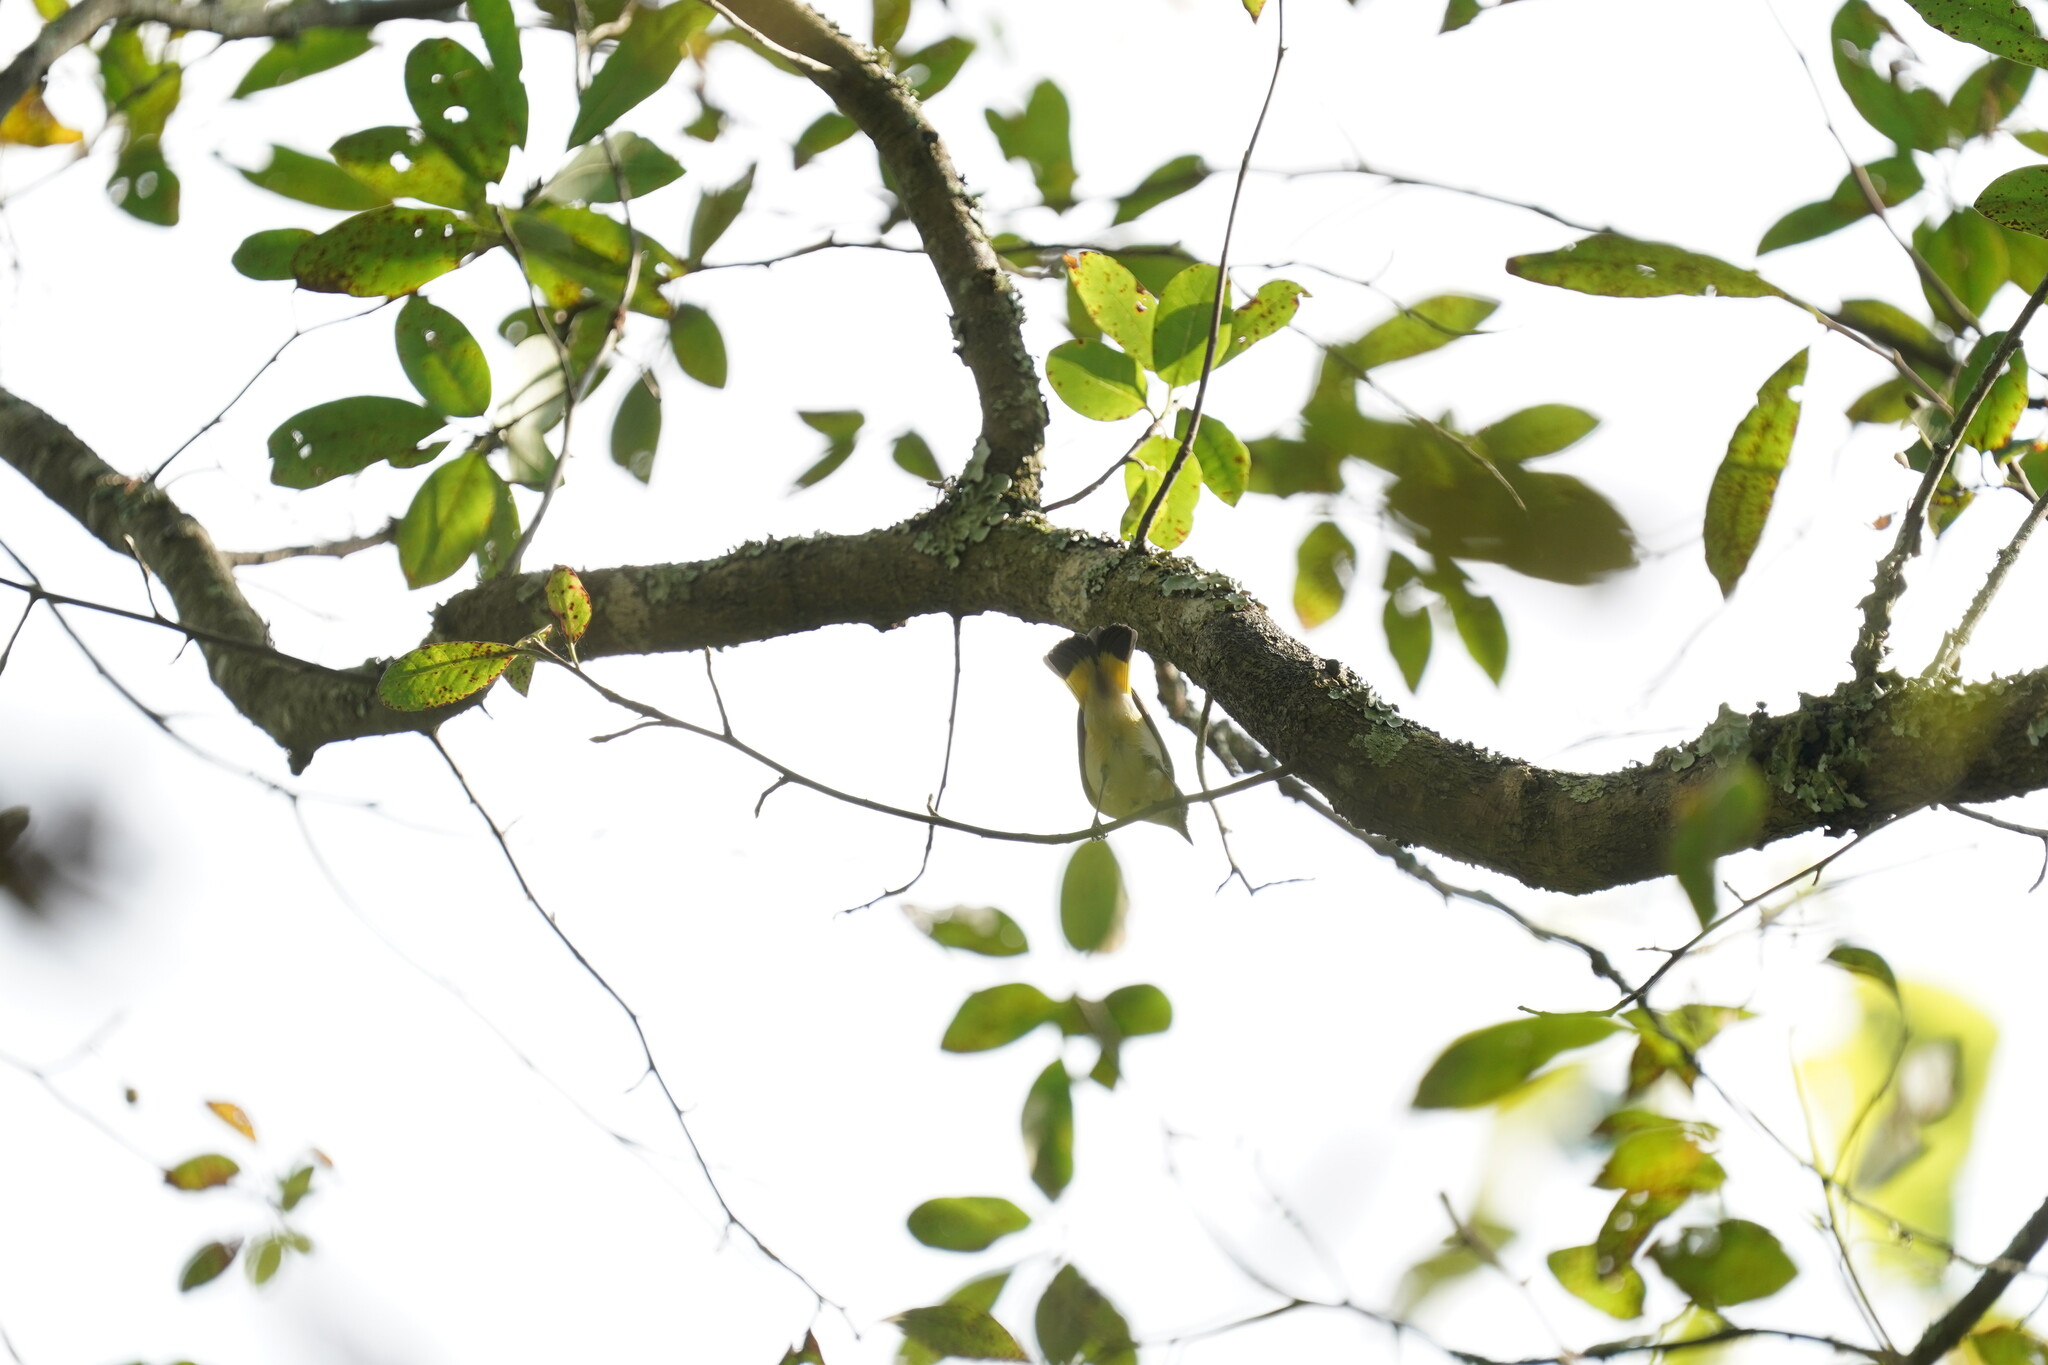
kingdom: Animalia
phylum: Chordata
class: Aves
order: Passeriformes
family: Parulidae
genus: Setophaga
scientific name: Setophaga ruticilla
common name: American redstart
